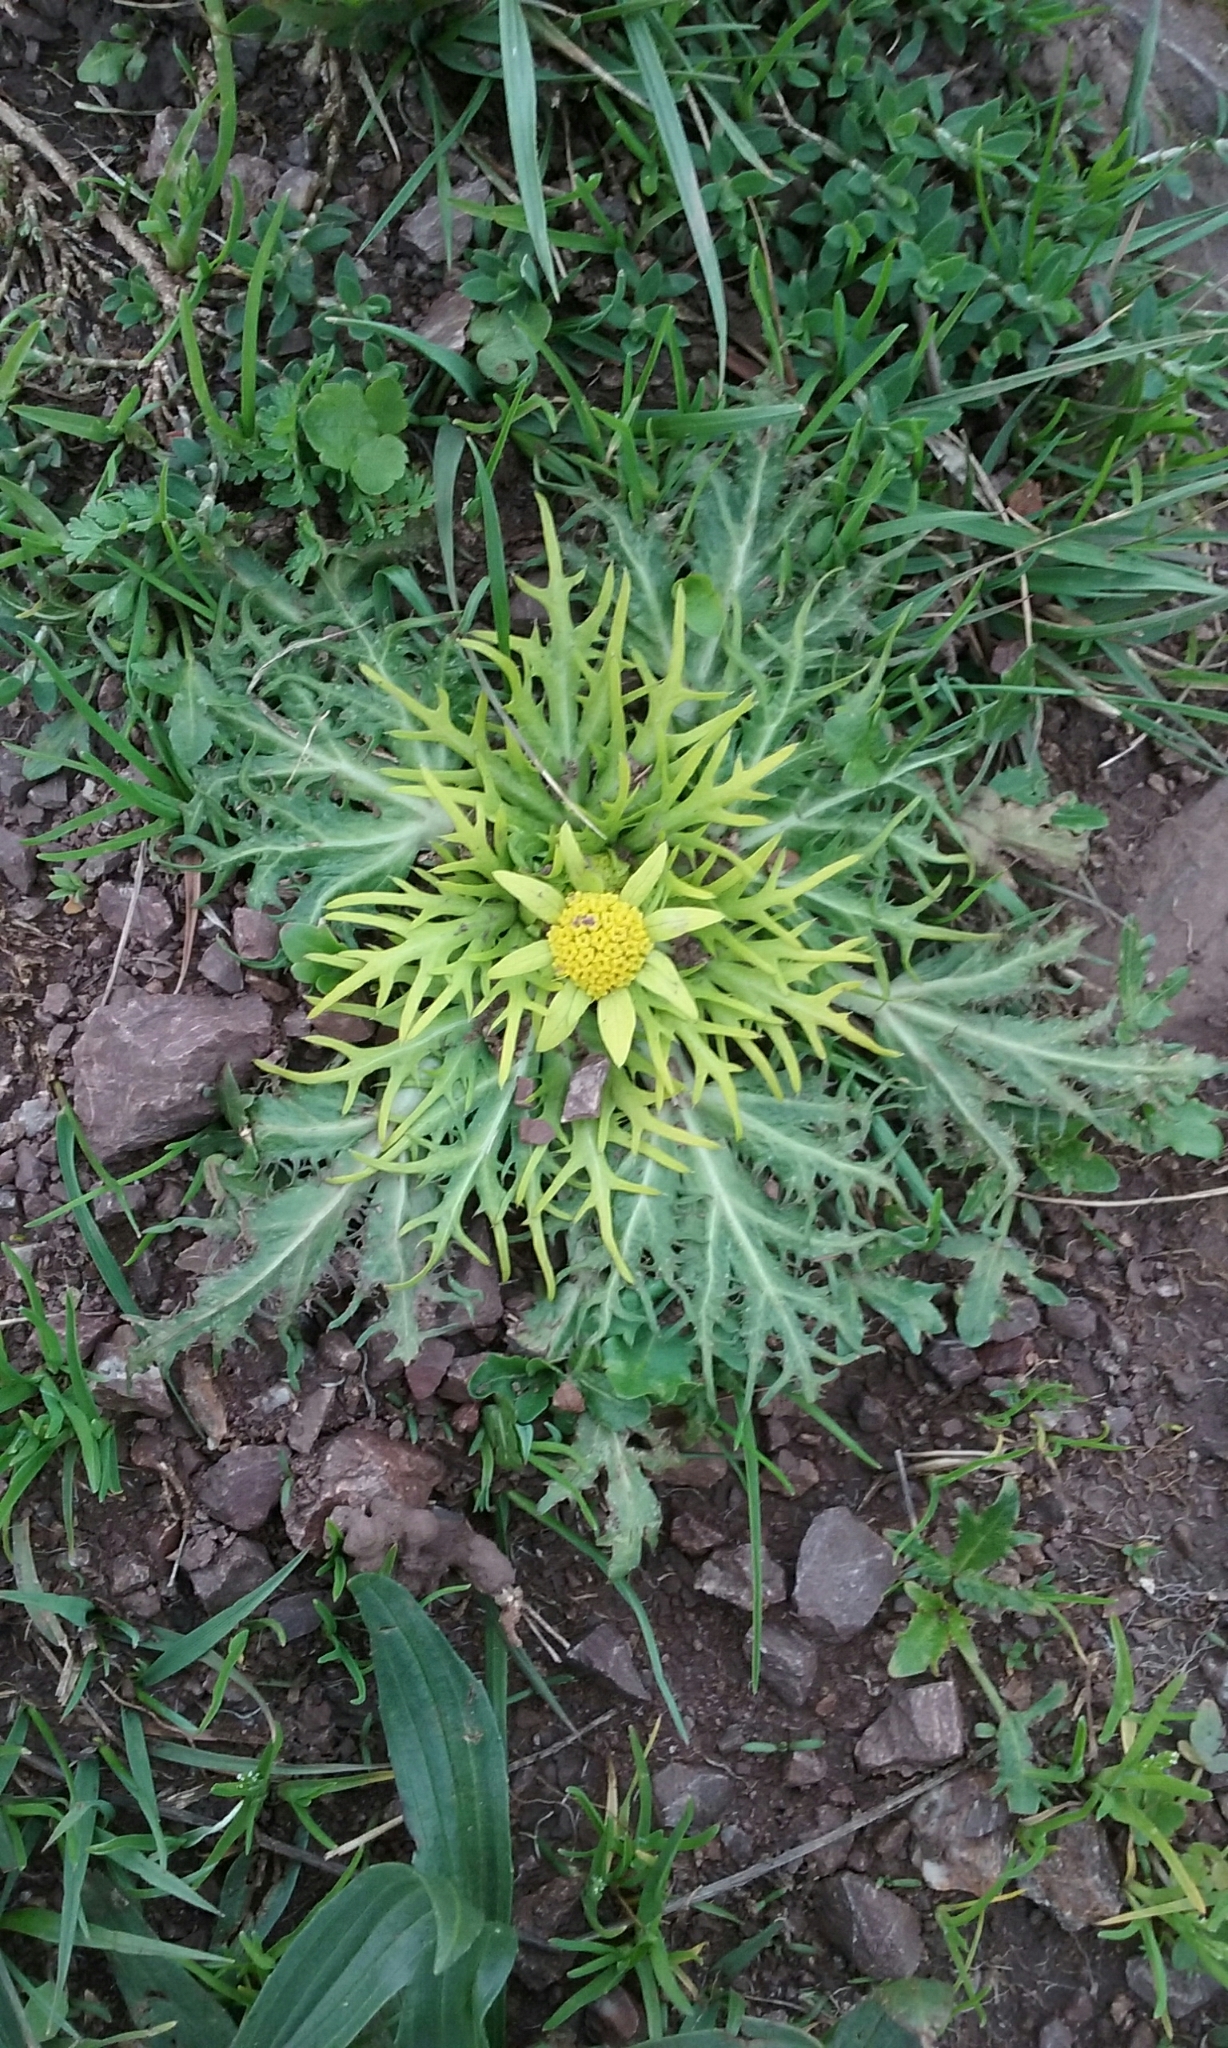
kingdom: Plantae
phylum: Tracheophyta
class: Magnoliopsida
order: Apiales
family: Apiaceae
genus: Sanicula
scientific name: Sanicula arctopoides
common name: Footsteps-of-spring
